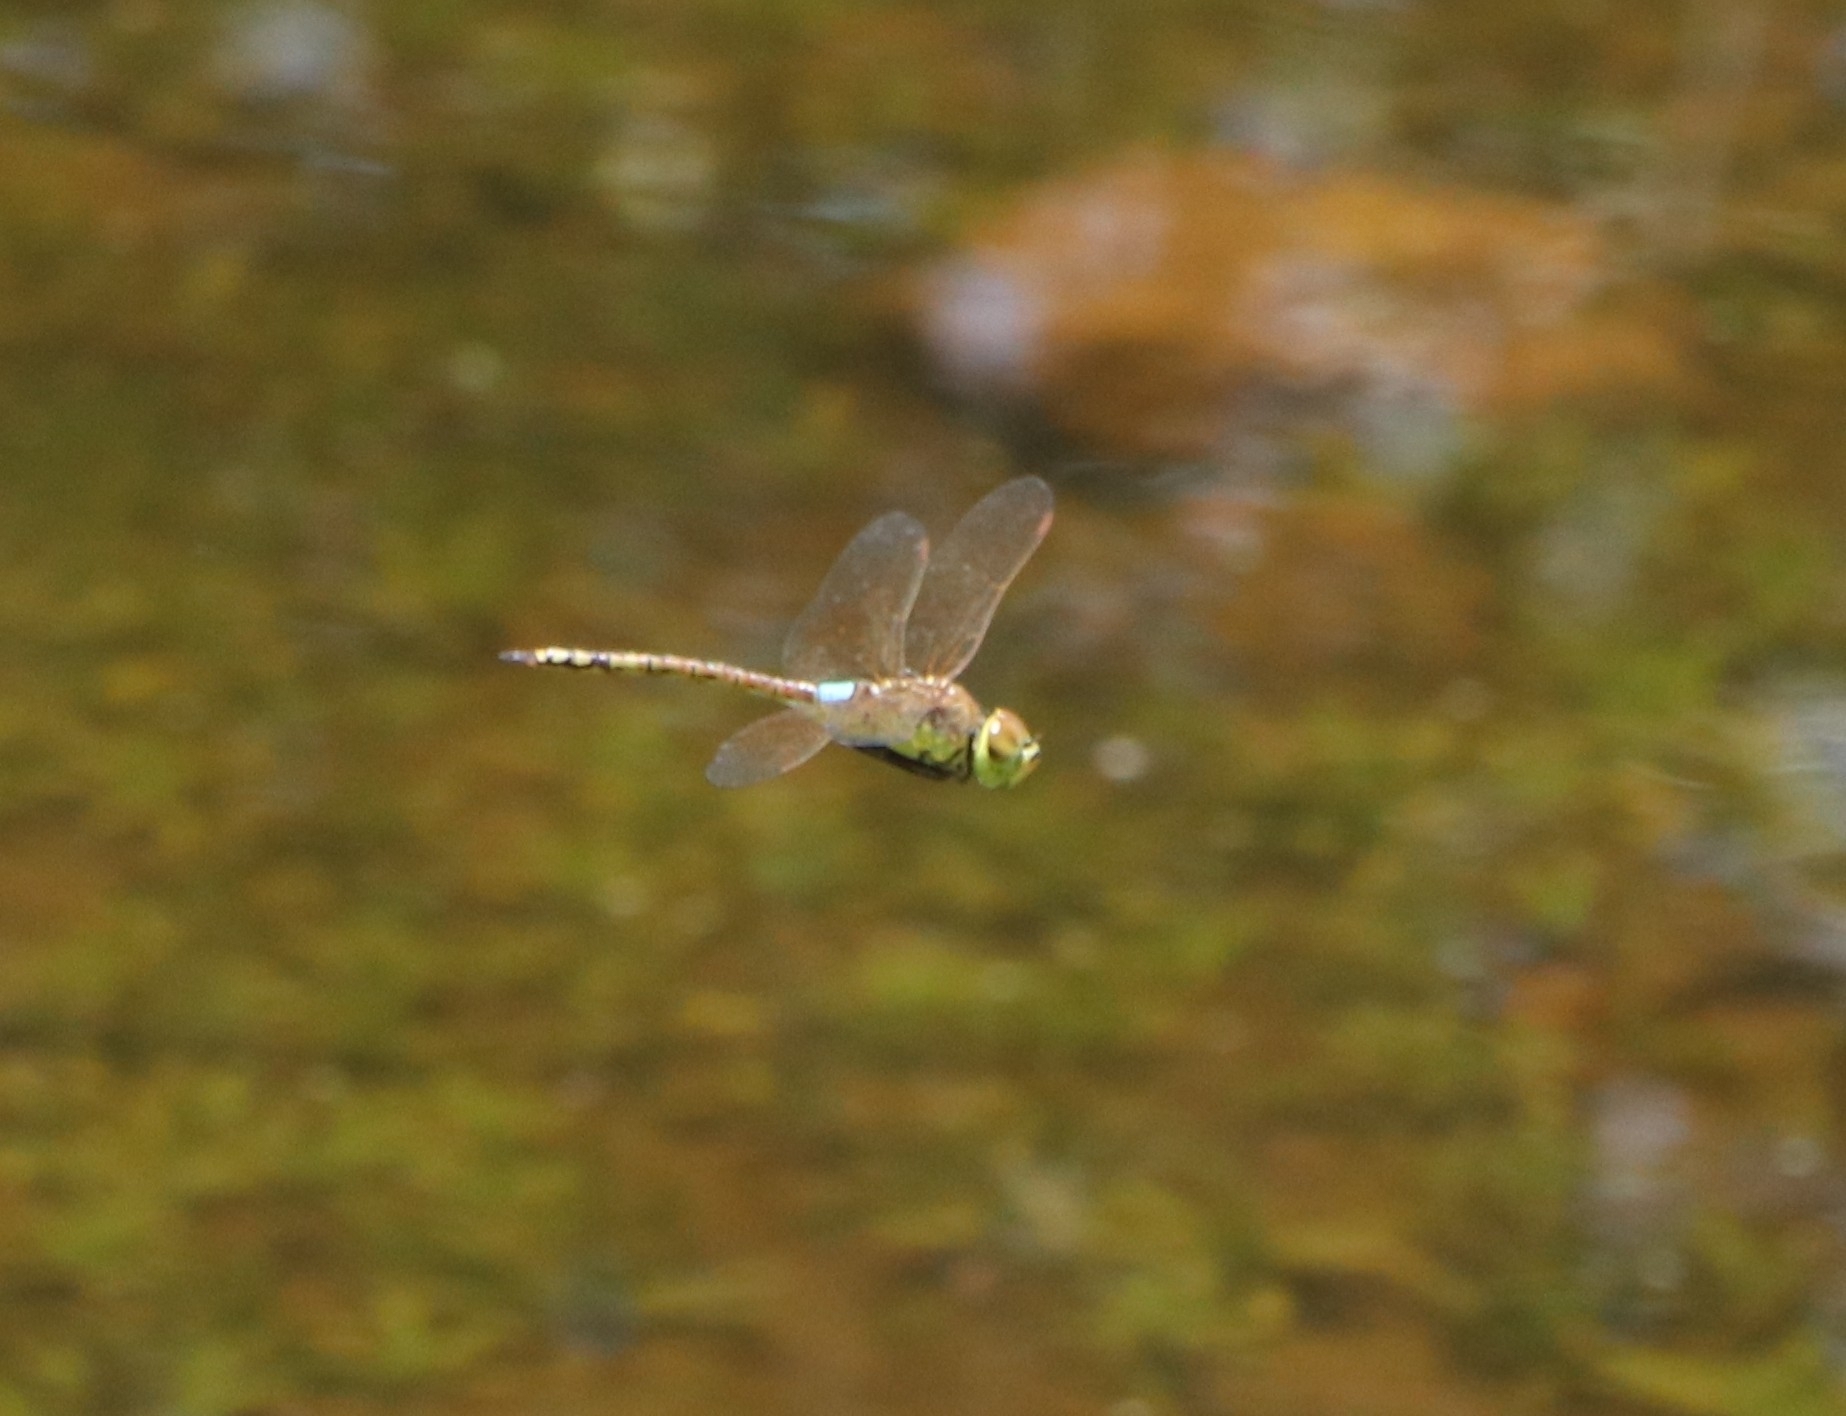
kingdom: Animalia
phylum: Arthropoda
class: Insecta
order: Odonata
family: Aeshnidae
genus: Anax
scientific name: Anax ephippiger
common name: Vagrant emperor
